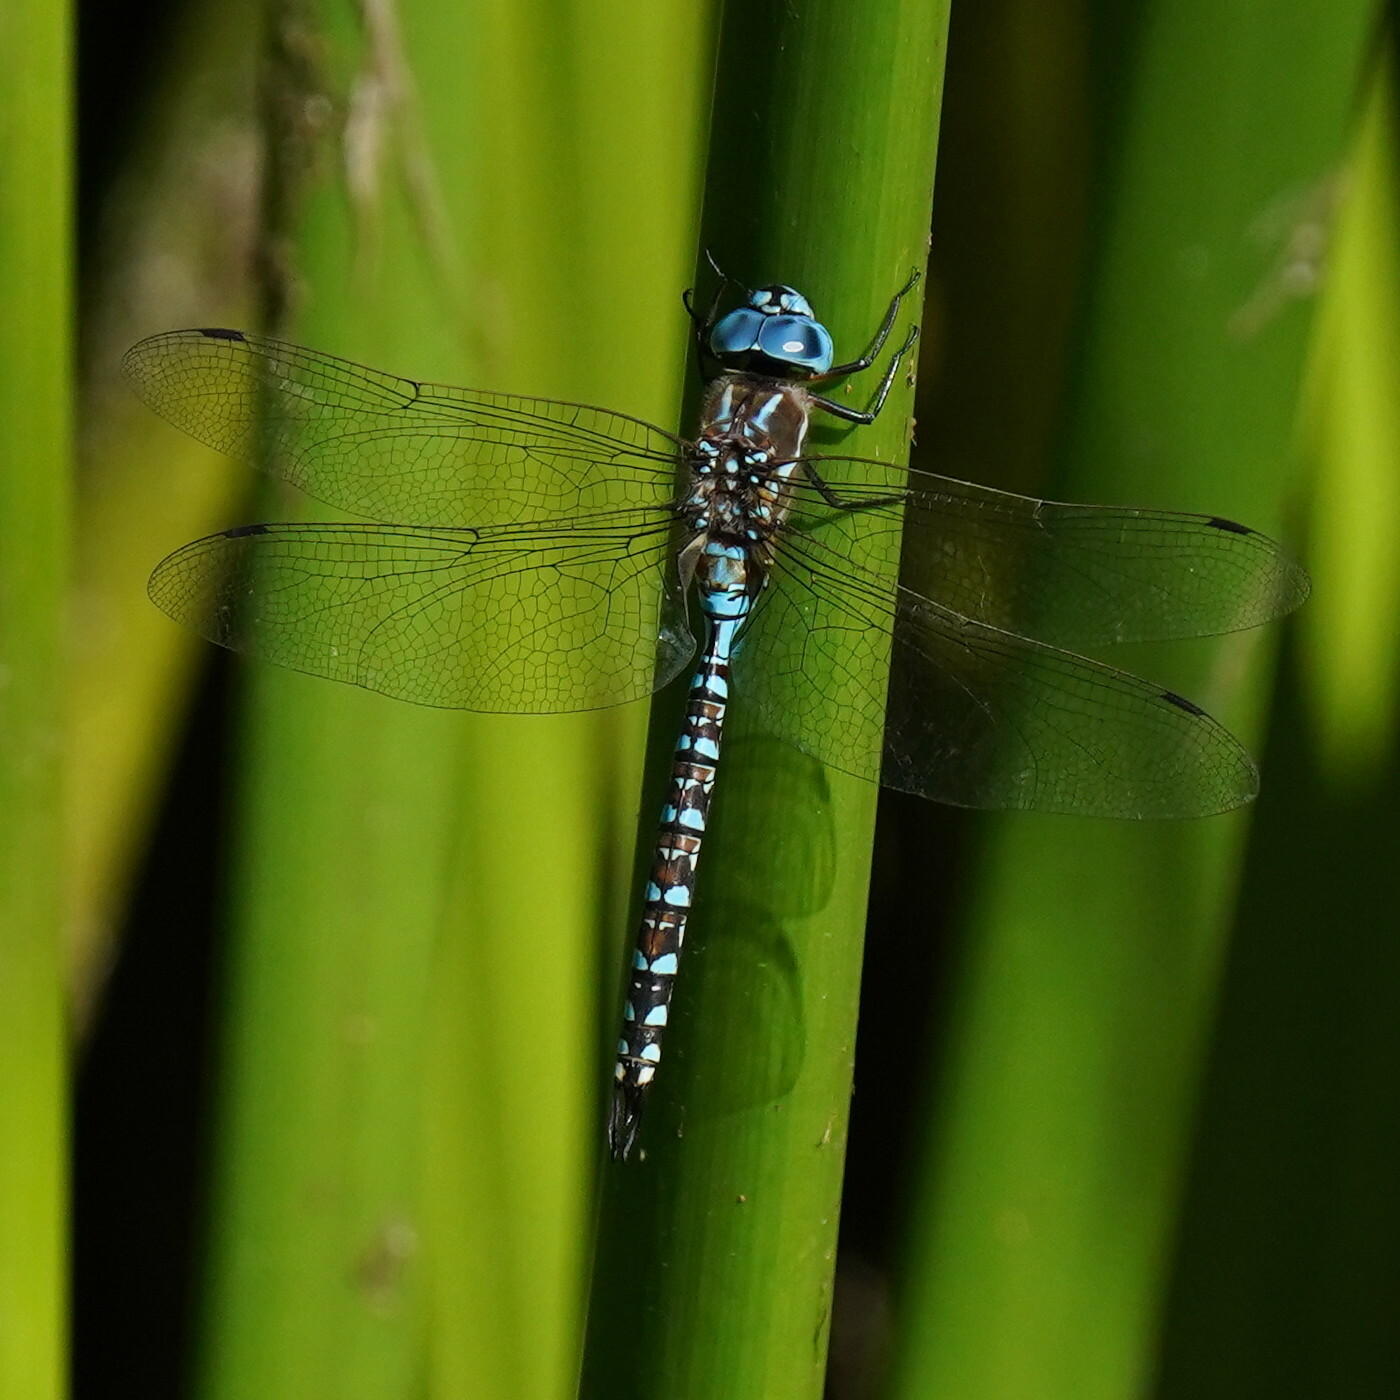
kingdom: Animalia
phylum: Arthropoda
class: Insecta
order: Odonata
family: Aeshnidae
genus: Rhionaeschna
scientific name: Rhionaeschna multicolor
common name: Blue-eyed darner
